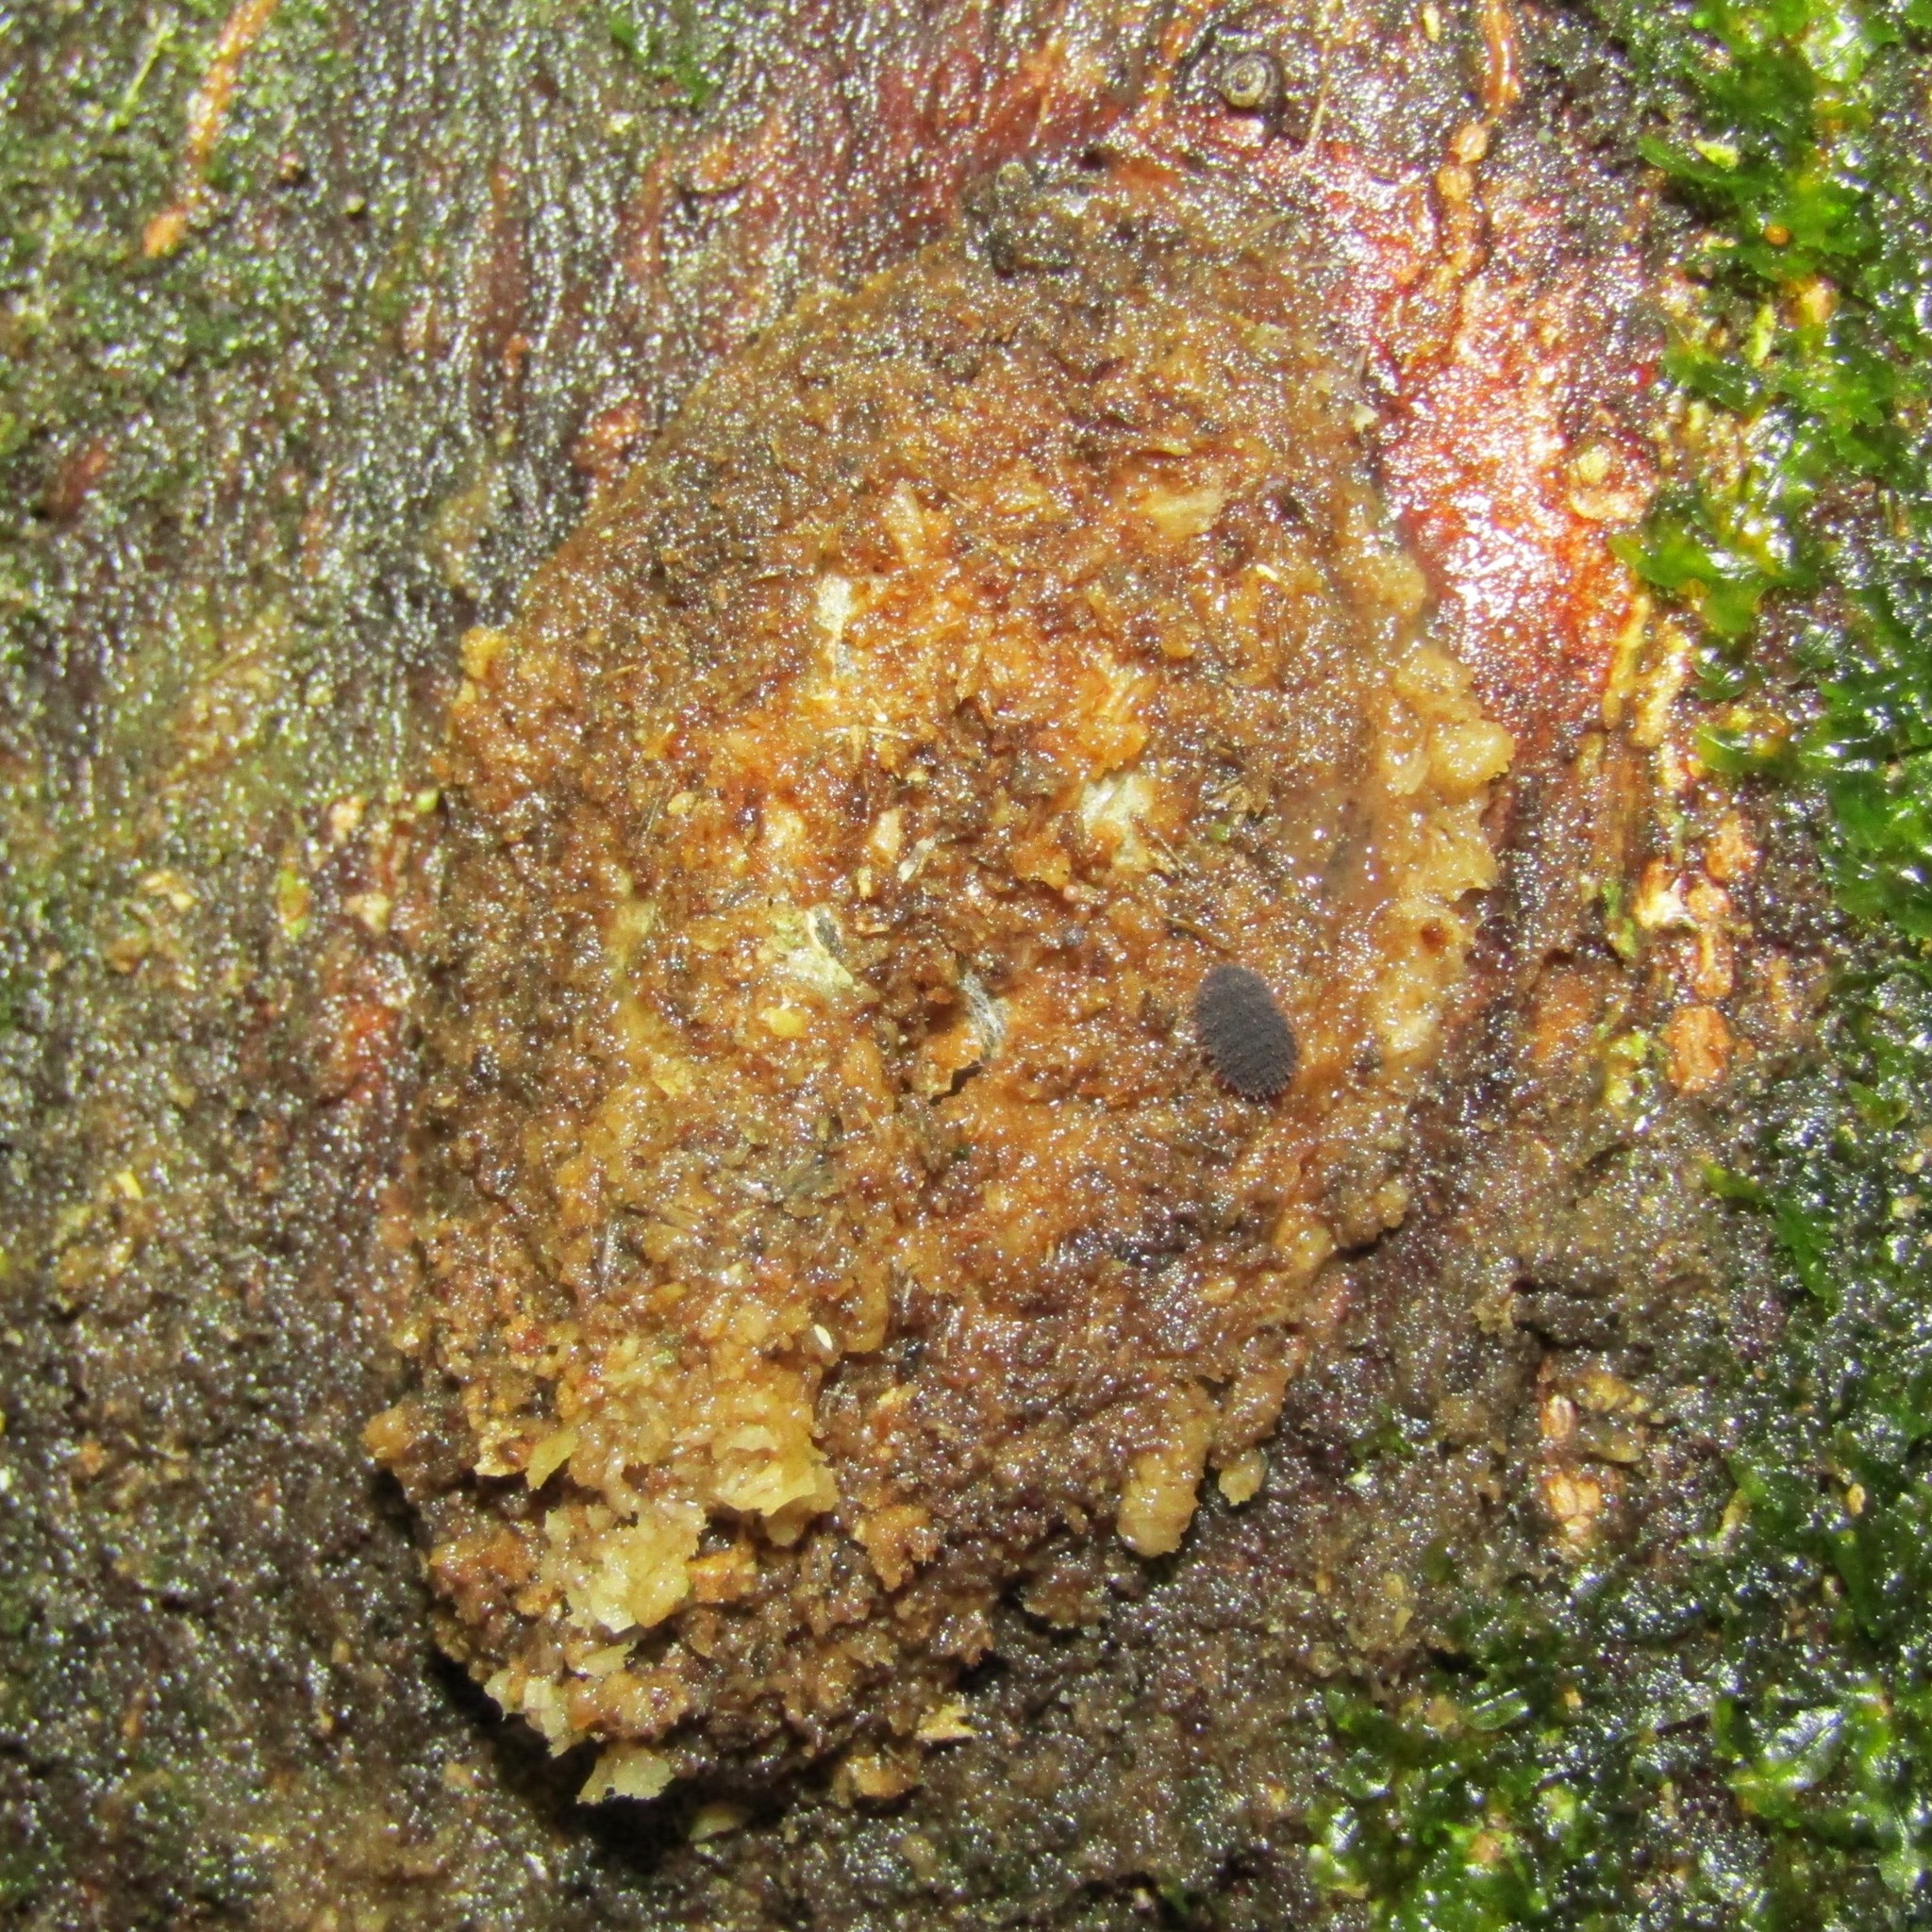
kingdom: Animalia
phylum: Arthropoda
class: Insecta
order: Lepidoptera
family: Hepialidae
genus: Aenetus
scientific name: Aenetus virescens
